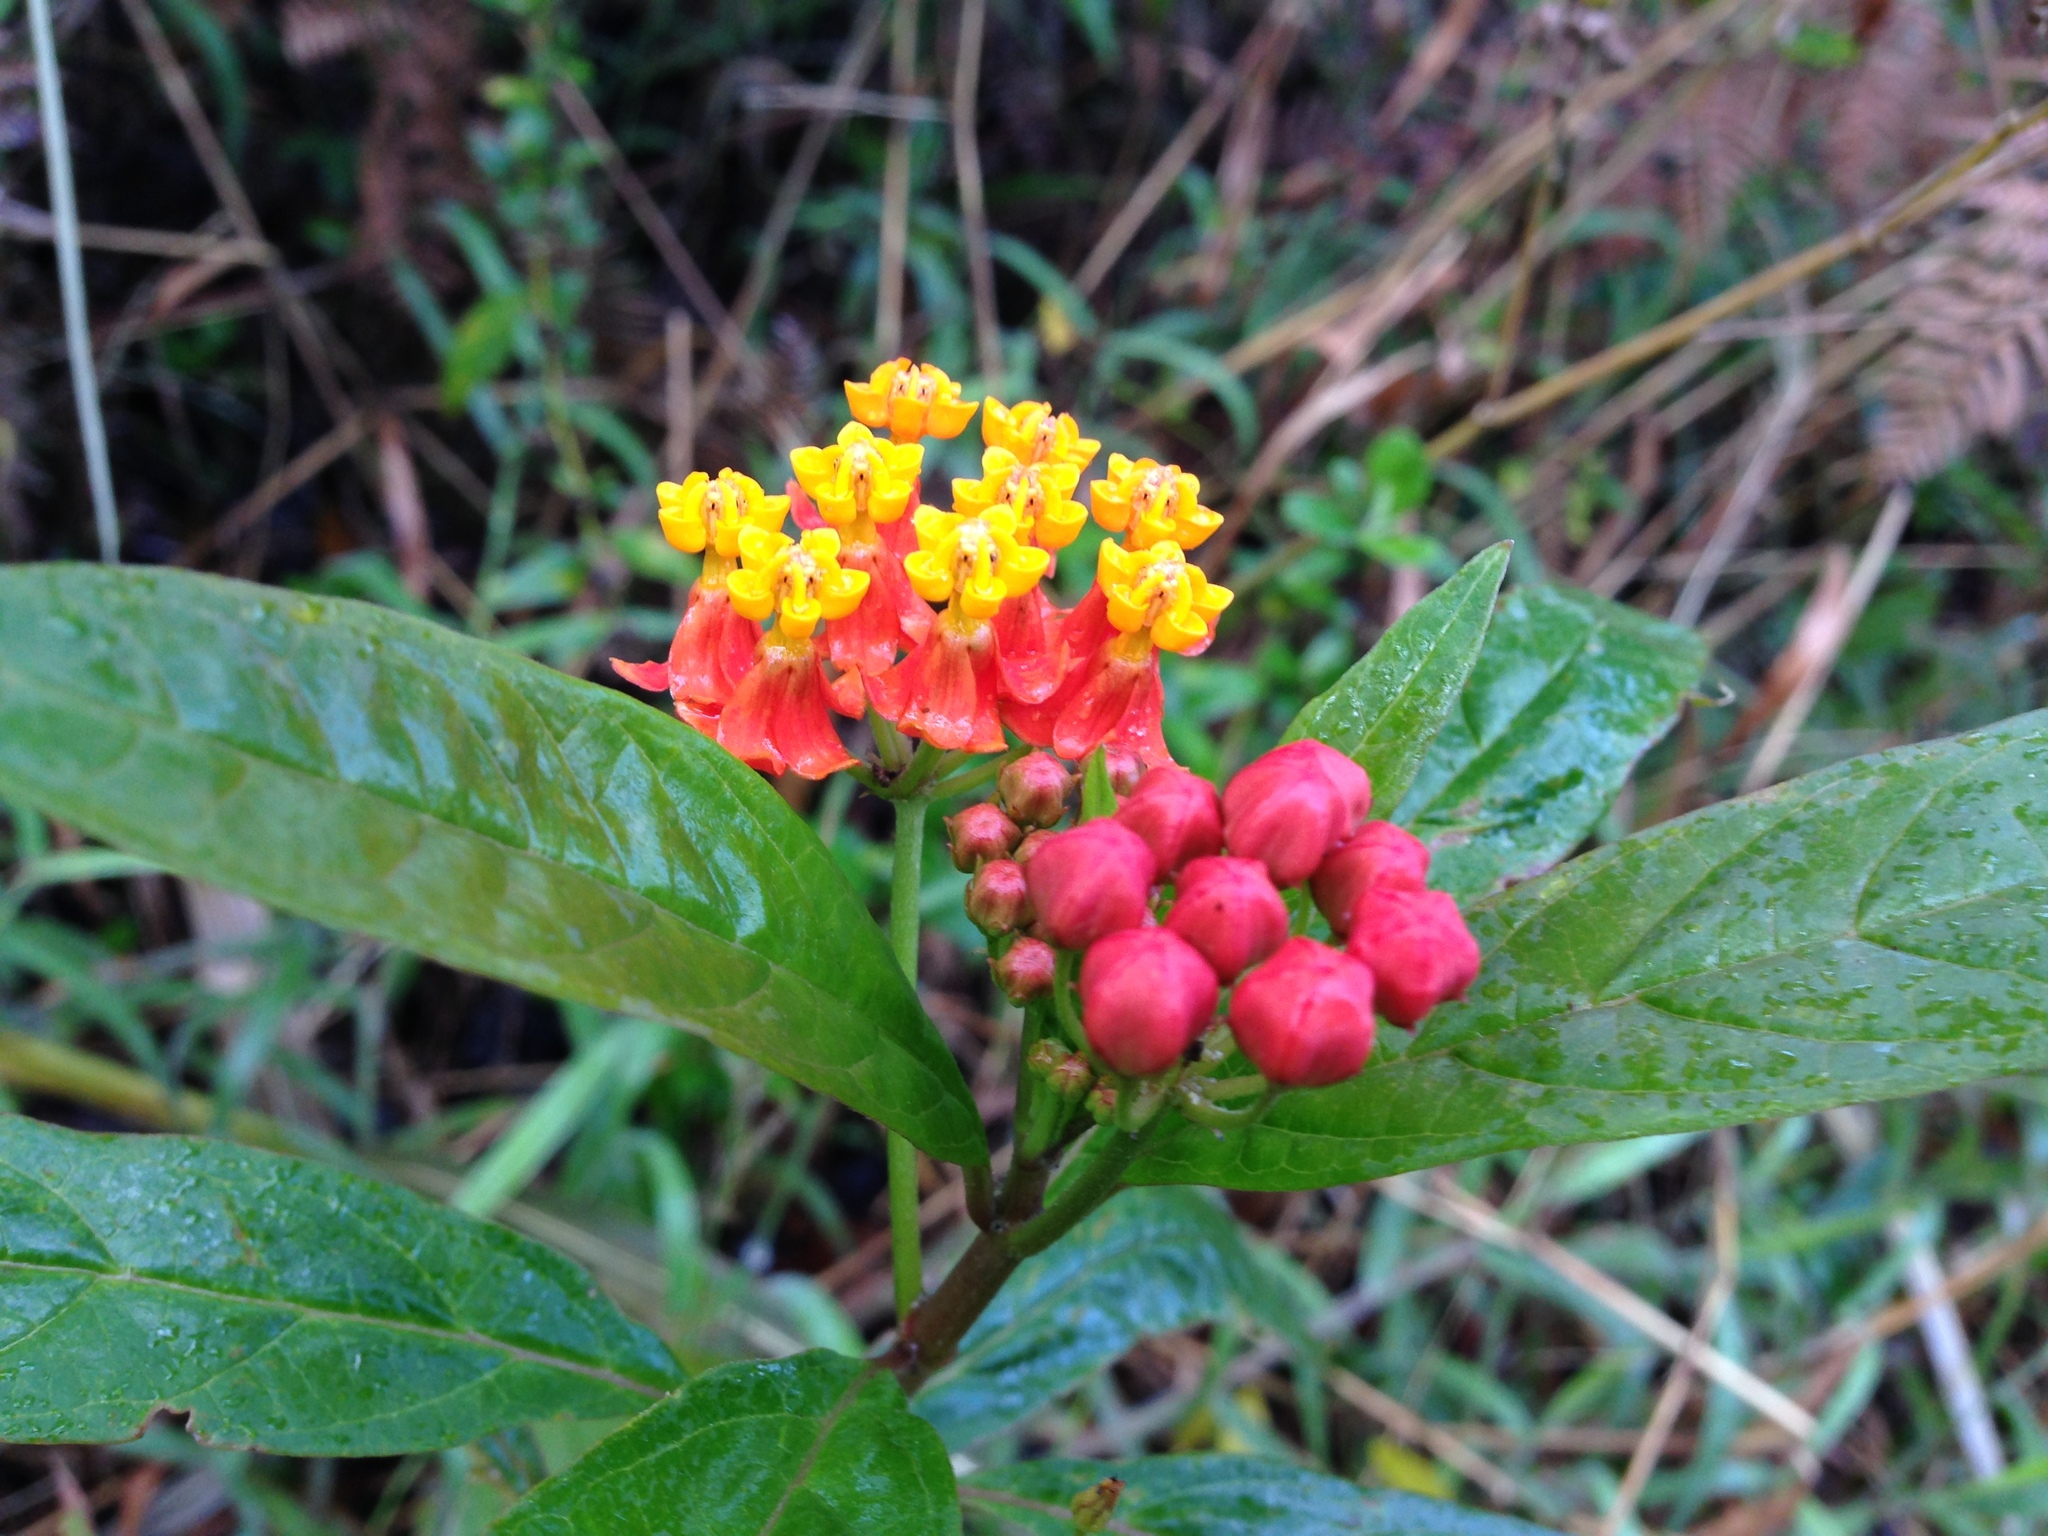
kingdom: Plantae
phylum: Tracheophyta
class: Magnoliopsida
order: Gentianales
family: Apocynaceae
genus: Asclepias
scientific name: Asclepias curassavica
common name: Bloodflower
